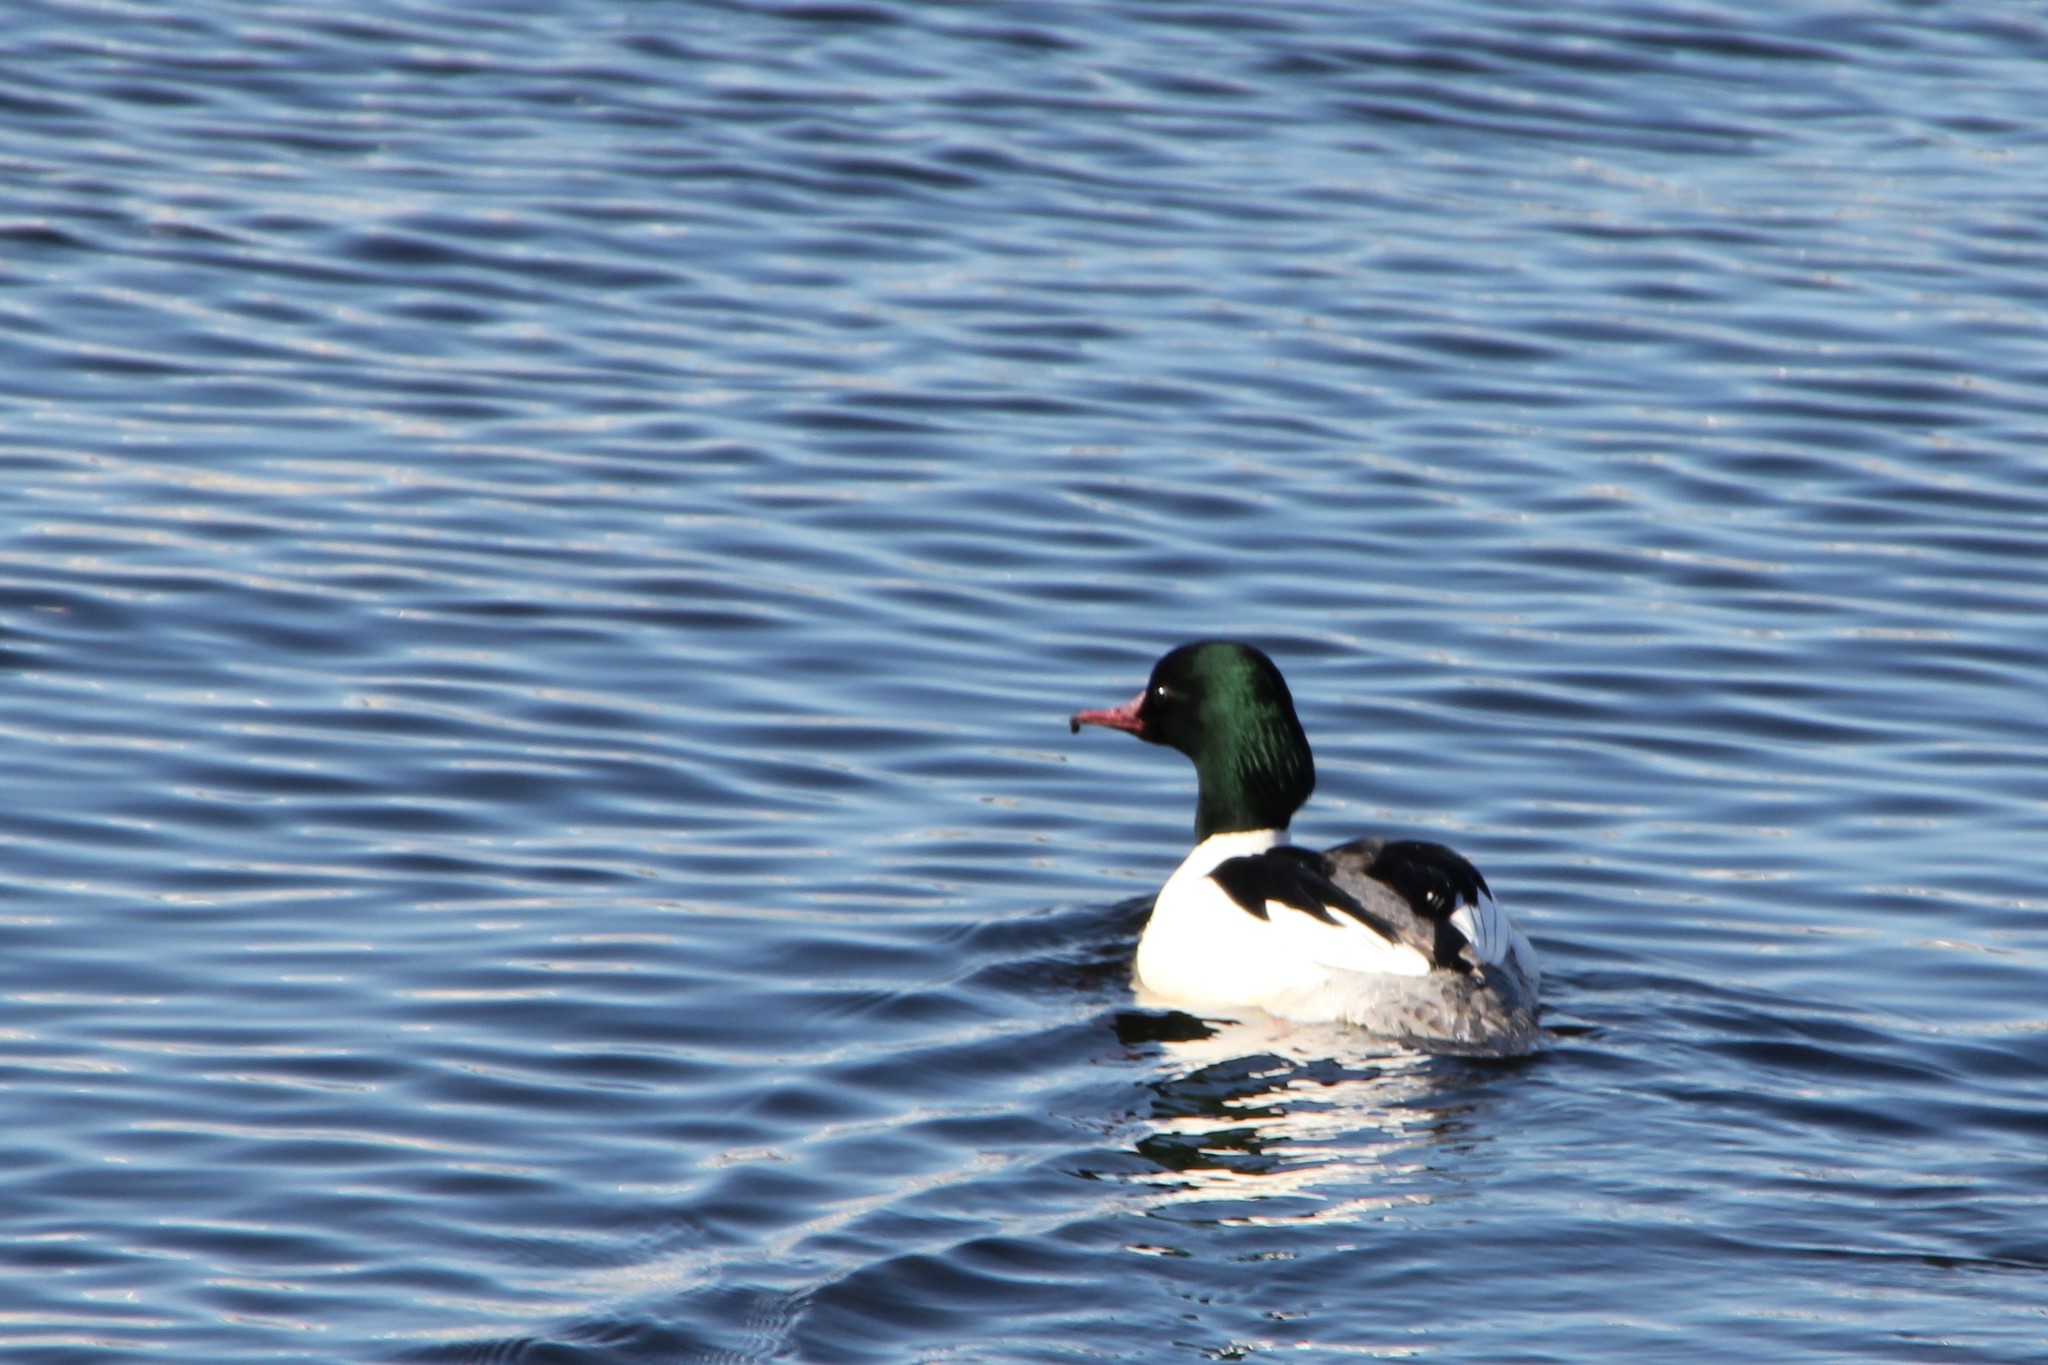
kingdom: Animalia
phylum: Chordata
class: Aves
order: Anseriformes
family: Anatidae
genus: Mergus
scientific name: Mergus merganser
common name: Common merganser
